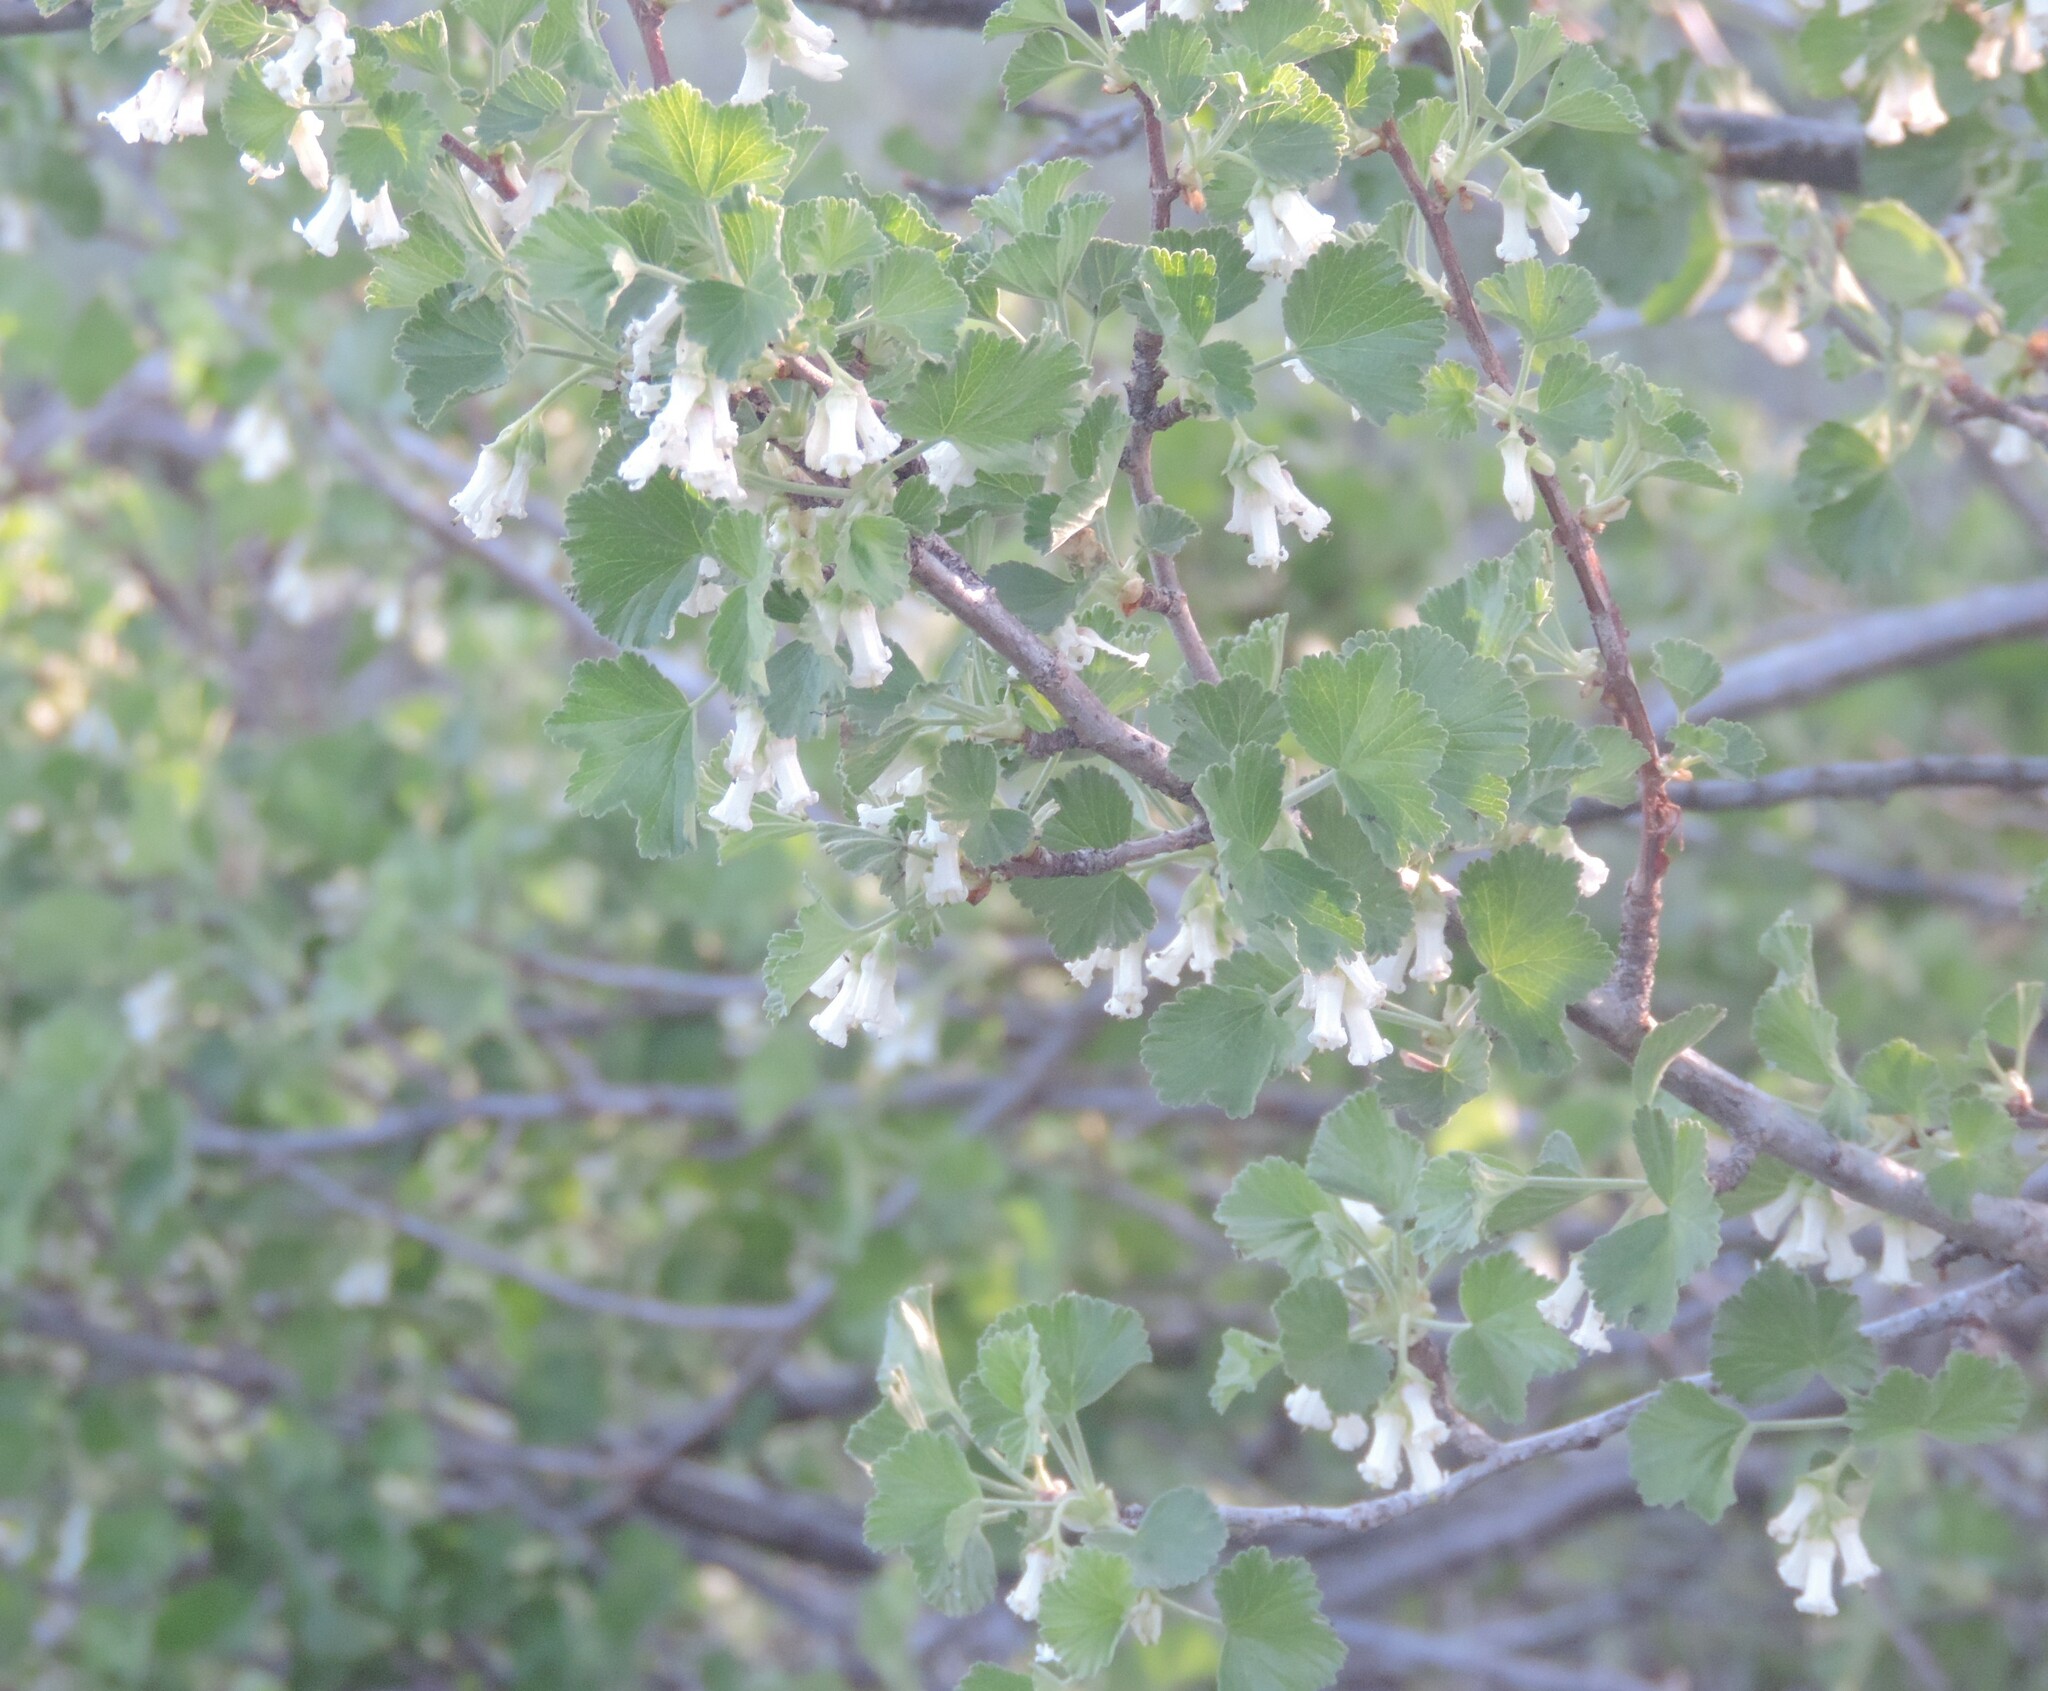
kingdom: Plantae
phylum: Tracheophyta
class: Magnoliopsida
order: Saxifragales
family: Grossulariaceae
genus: Ribes
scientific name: Ribes cereum
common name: Wax currant
